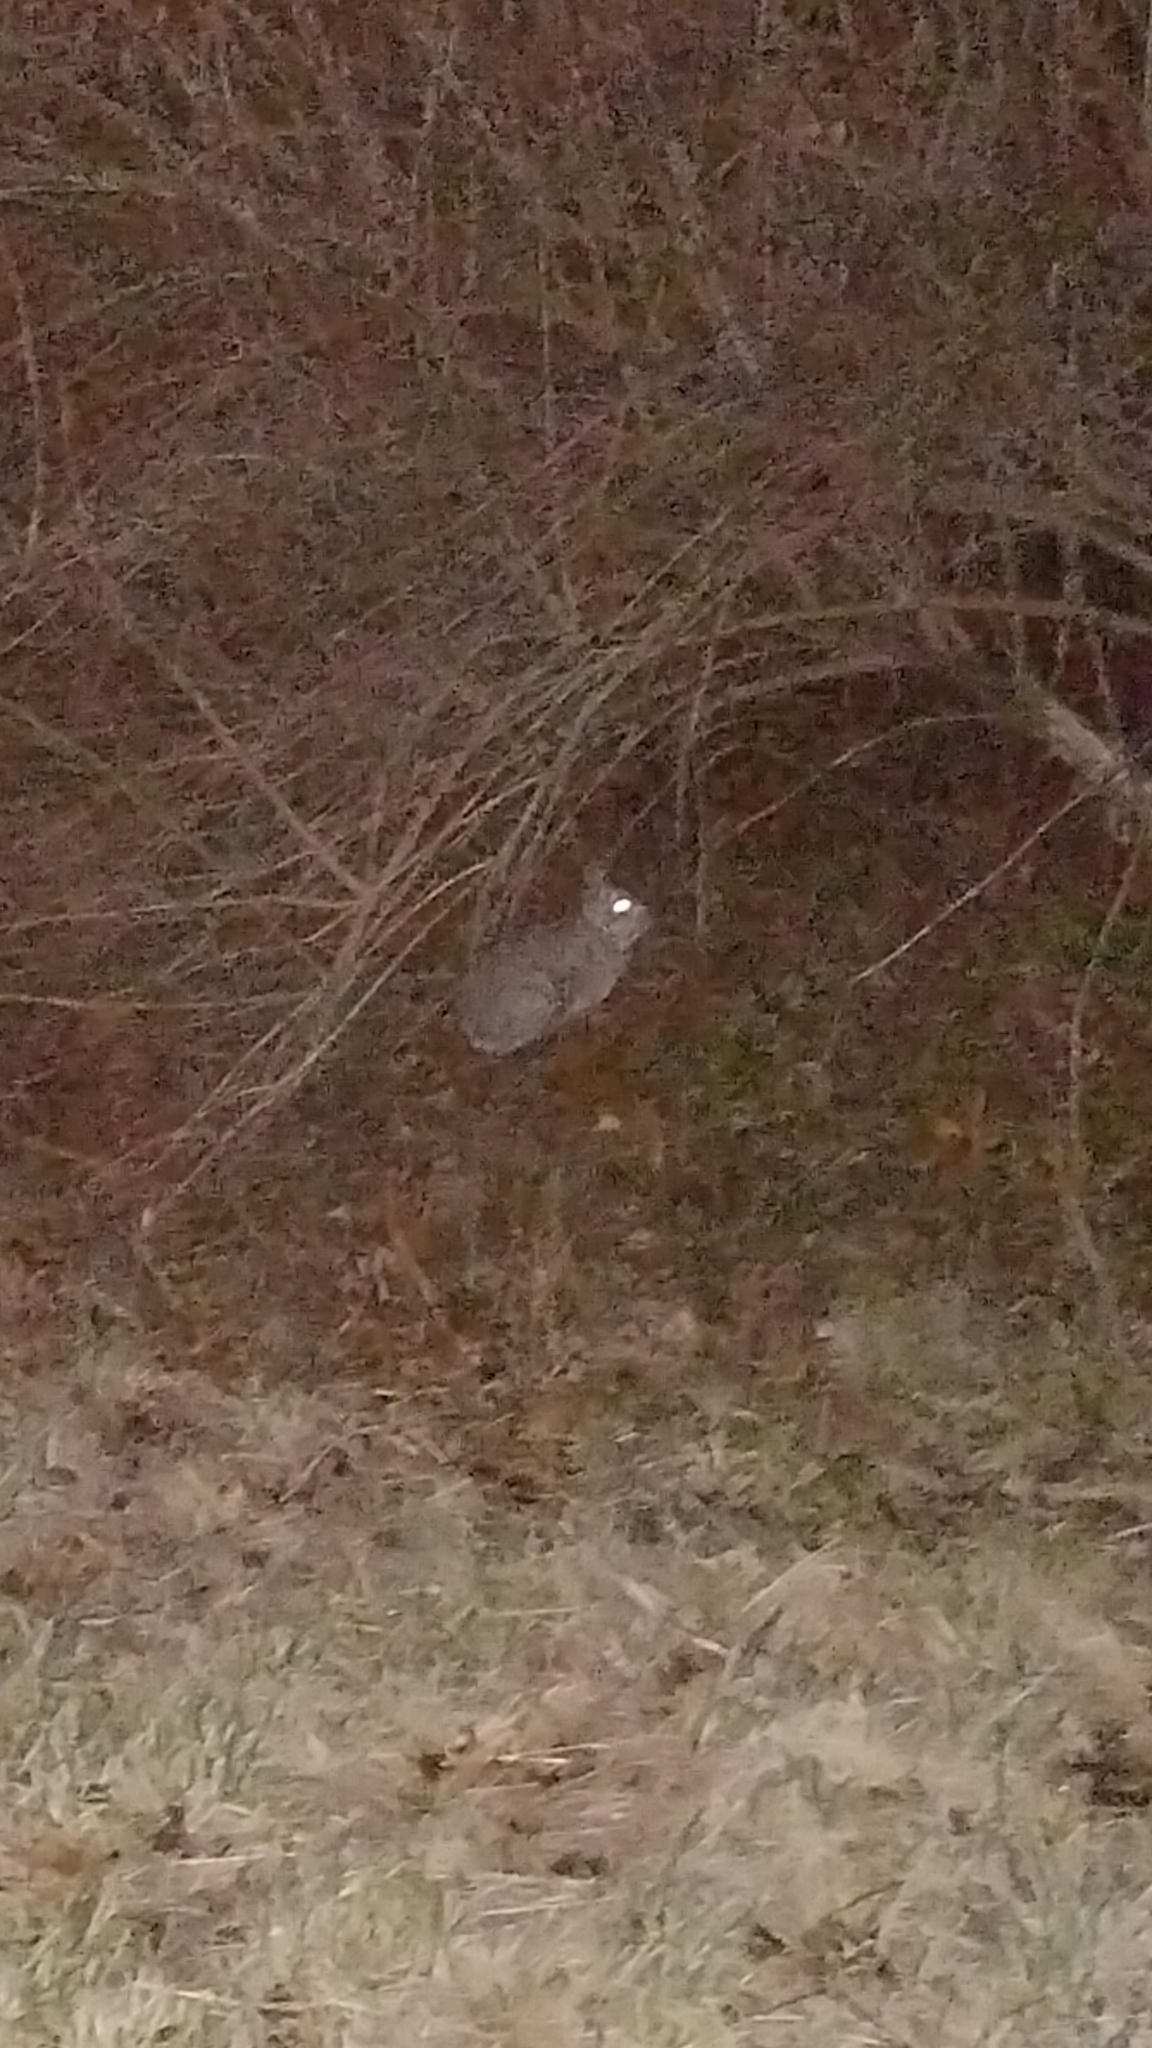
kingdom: Animalia
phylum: Chordata
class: Mammalia
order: Lagomorpha
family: Leporidae
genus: Sylvilagus
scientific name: Sylvilagus floridanus
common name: Eastern cottontail
